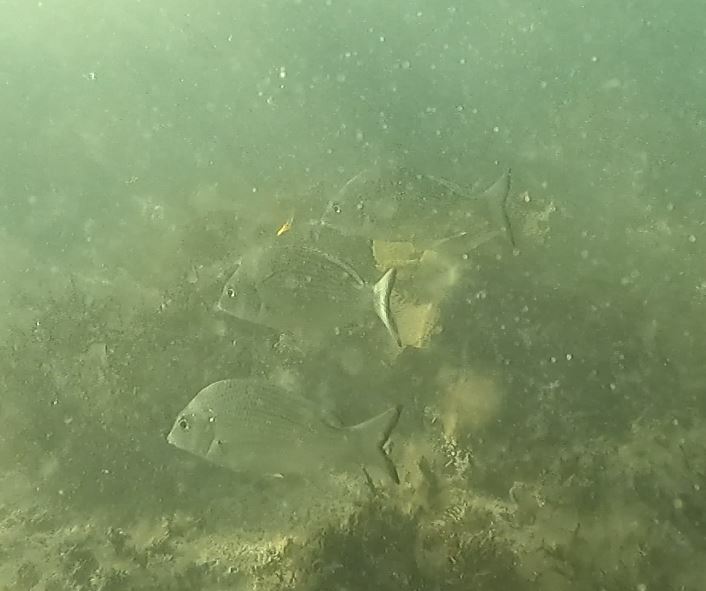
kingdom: Animalia
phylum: Chordata
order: Perciformes
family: Sparidae
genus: Acanthopagrus
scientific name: Acanthopagrus australis
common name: Surf bream
